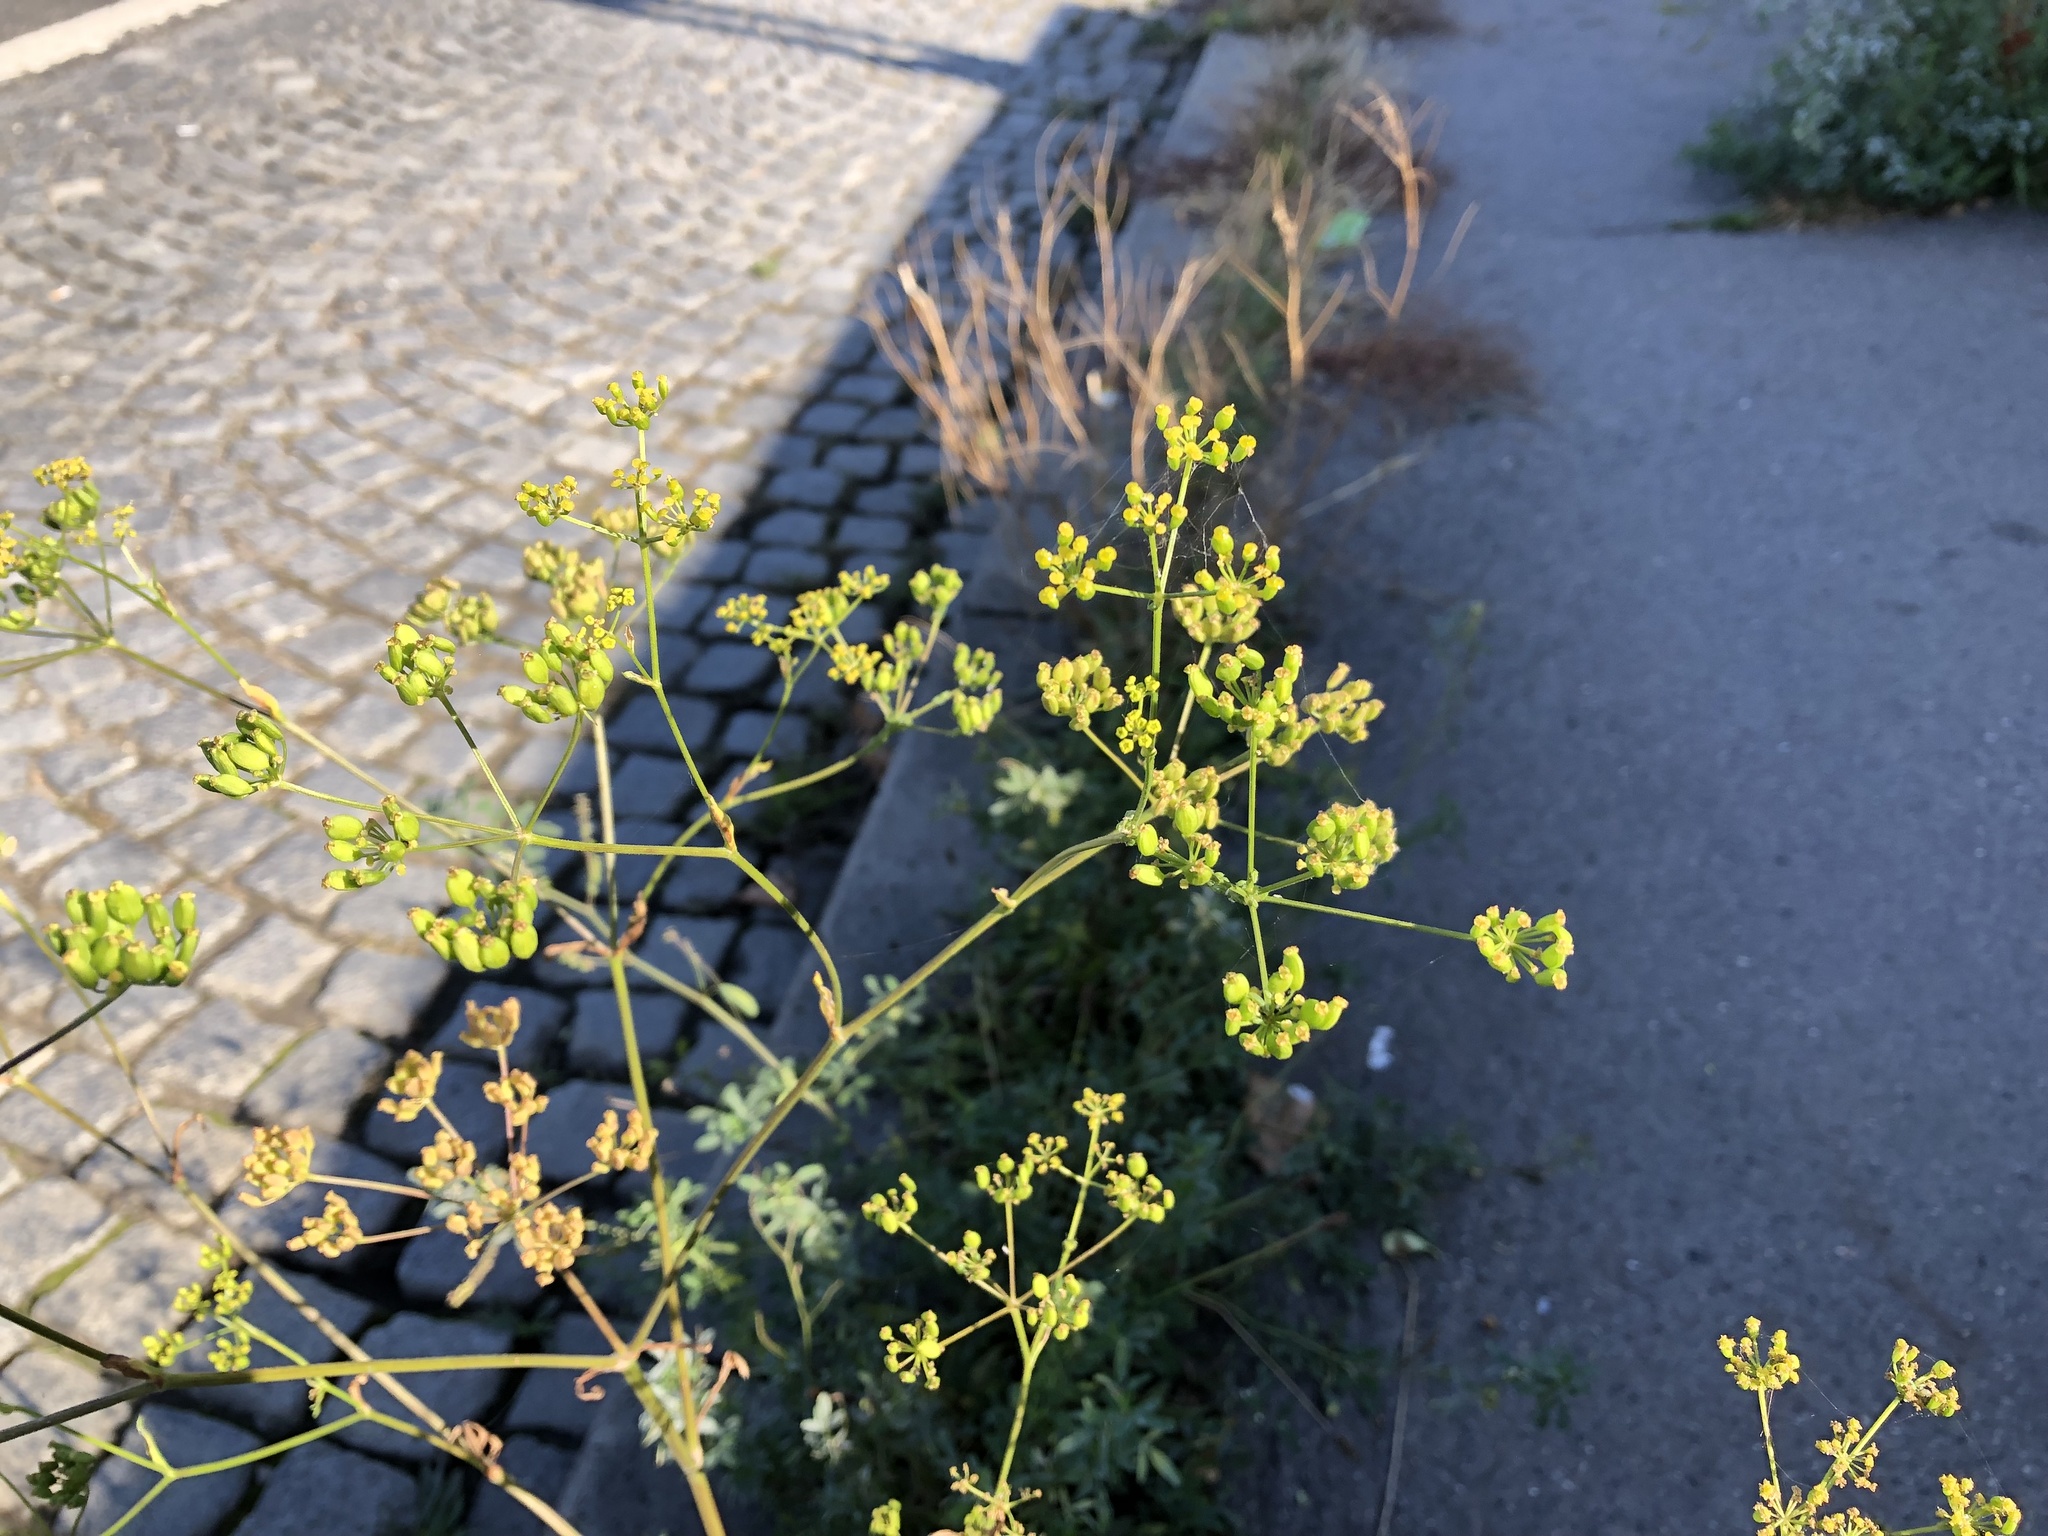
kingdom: Plantae
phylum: Tracheophyta
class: Magnoliopsida
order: Apiales
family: Apiaceae
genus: Pastinaca
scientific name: Pastinaca sativa
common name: Wild parsnip
